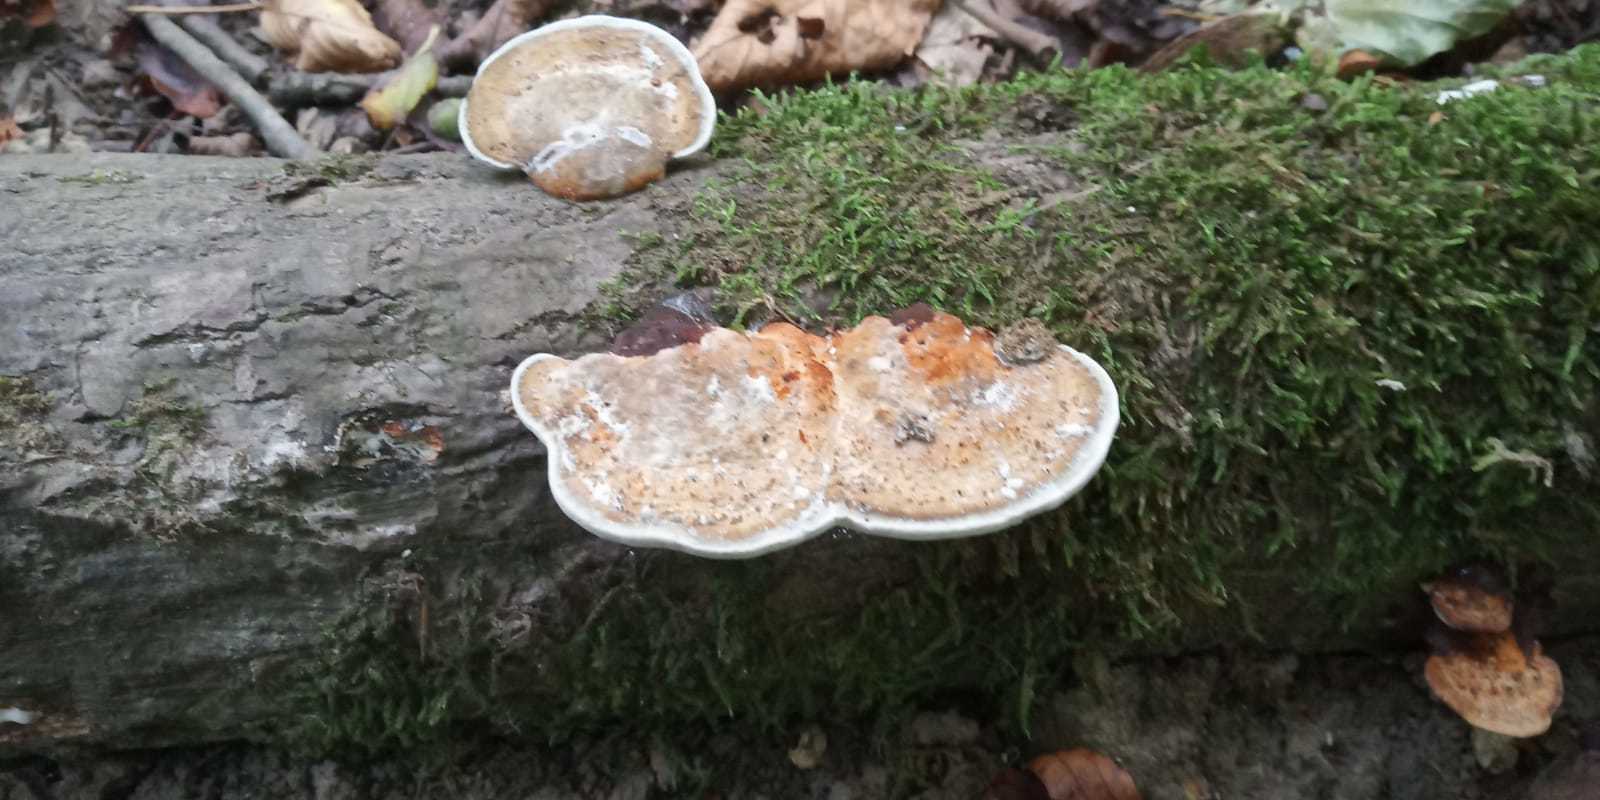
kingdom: Fungi
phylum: Basidiomycota
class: Agaricomycetes
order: Polyporales
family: Polyporaceae
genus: Daedaleopsis
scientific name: Daedaleopsis confragosa
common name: Blushing bracket
